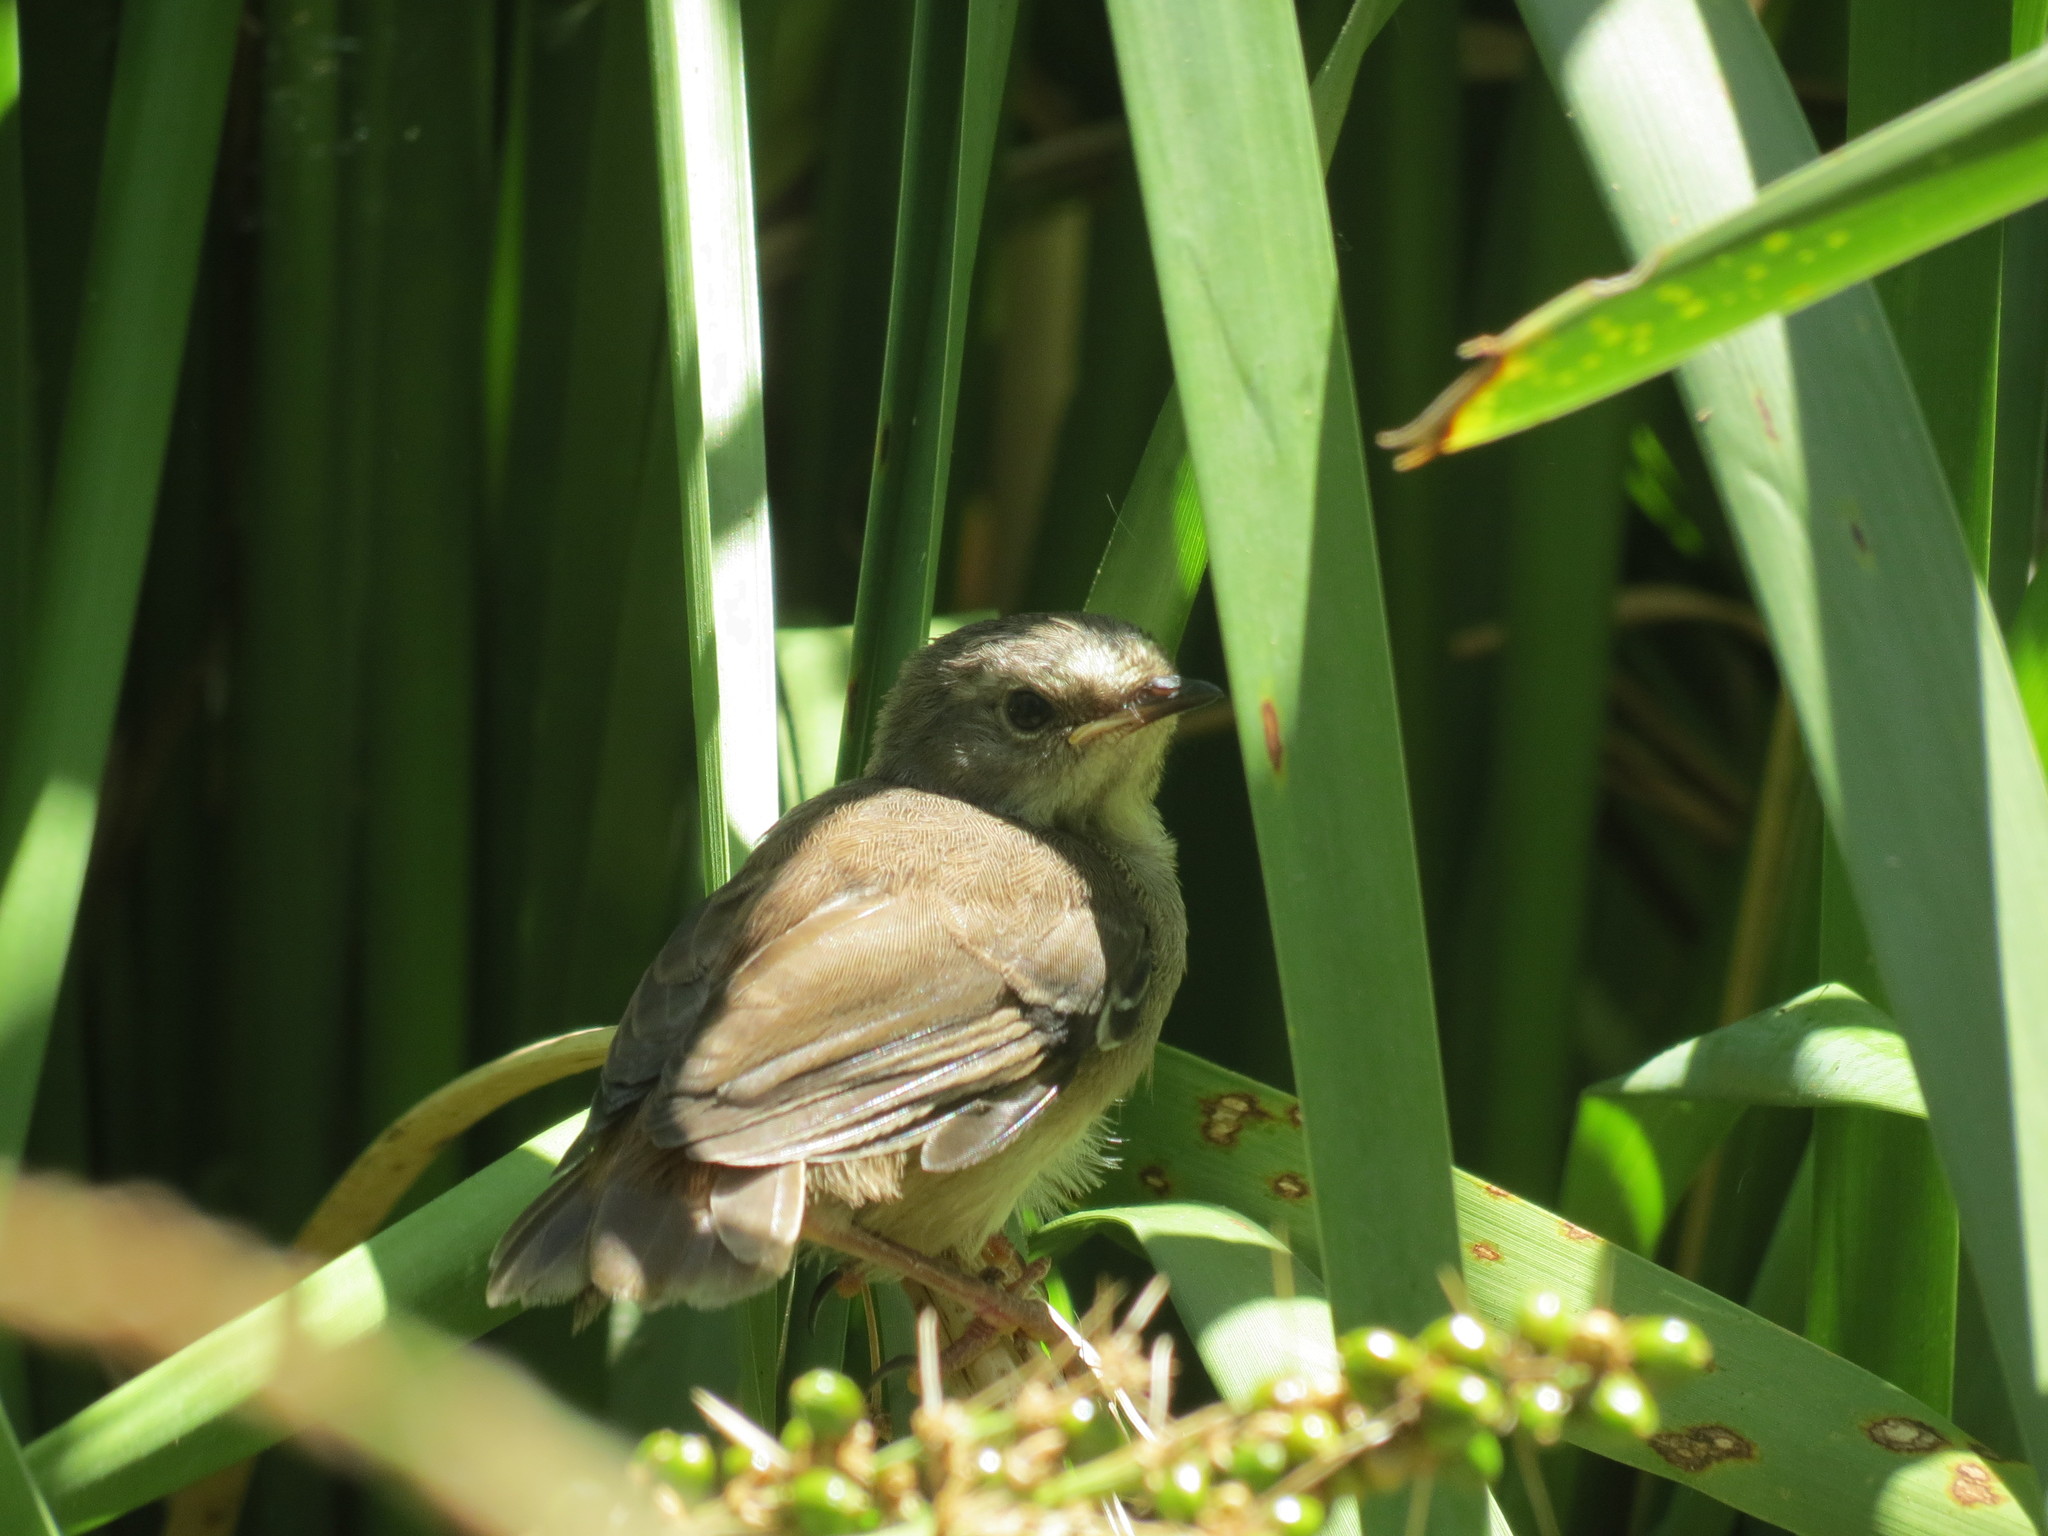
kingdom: Animalia
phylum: Chordata
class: Aves
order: Passeriformes
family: Acrocephalidae
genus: Acrocephalus
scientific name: Acrocephalus australis
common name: Australian reed warbler
